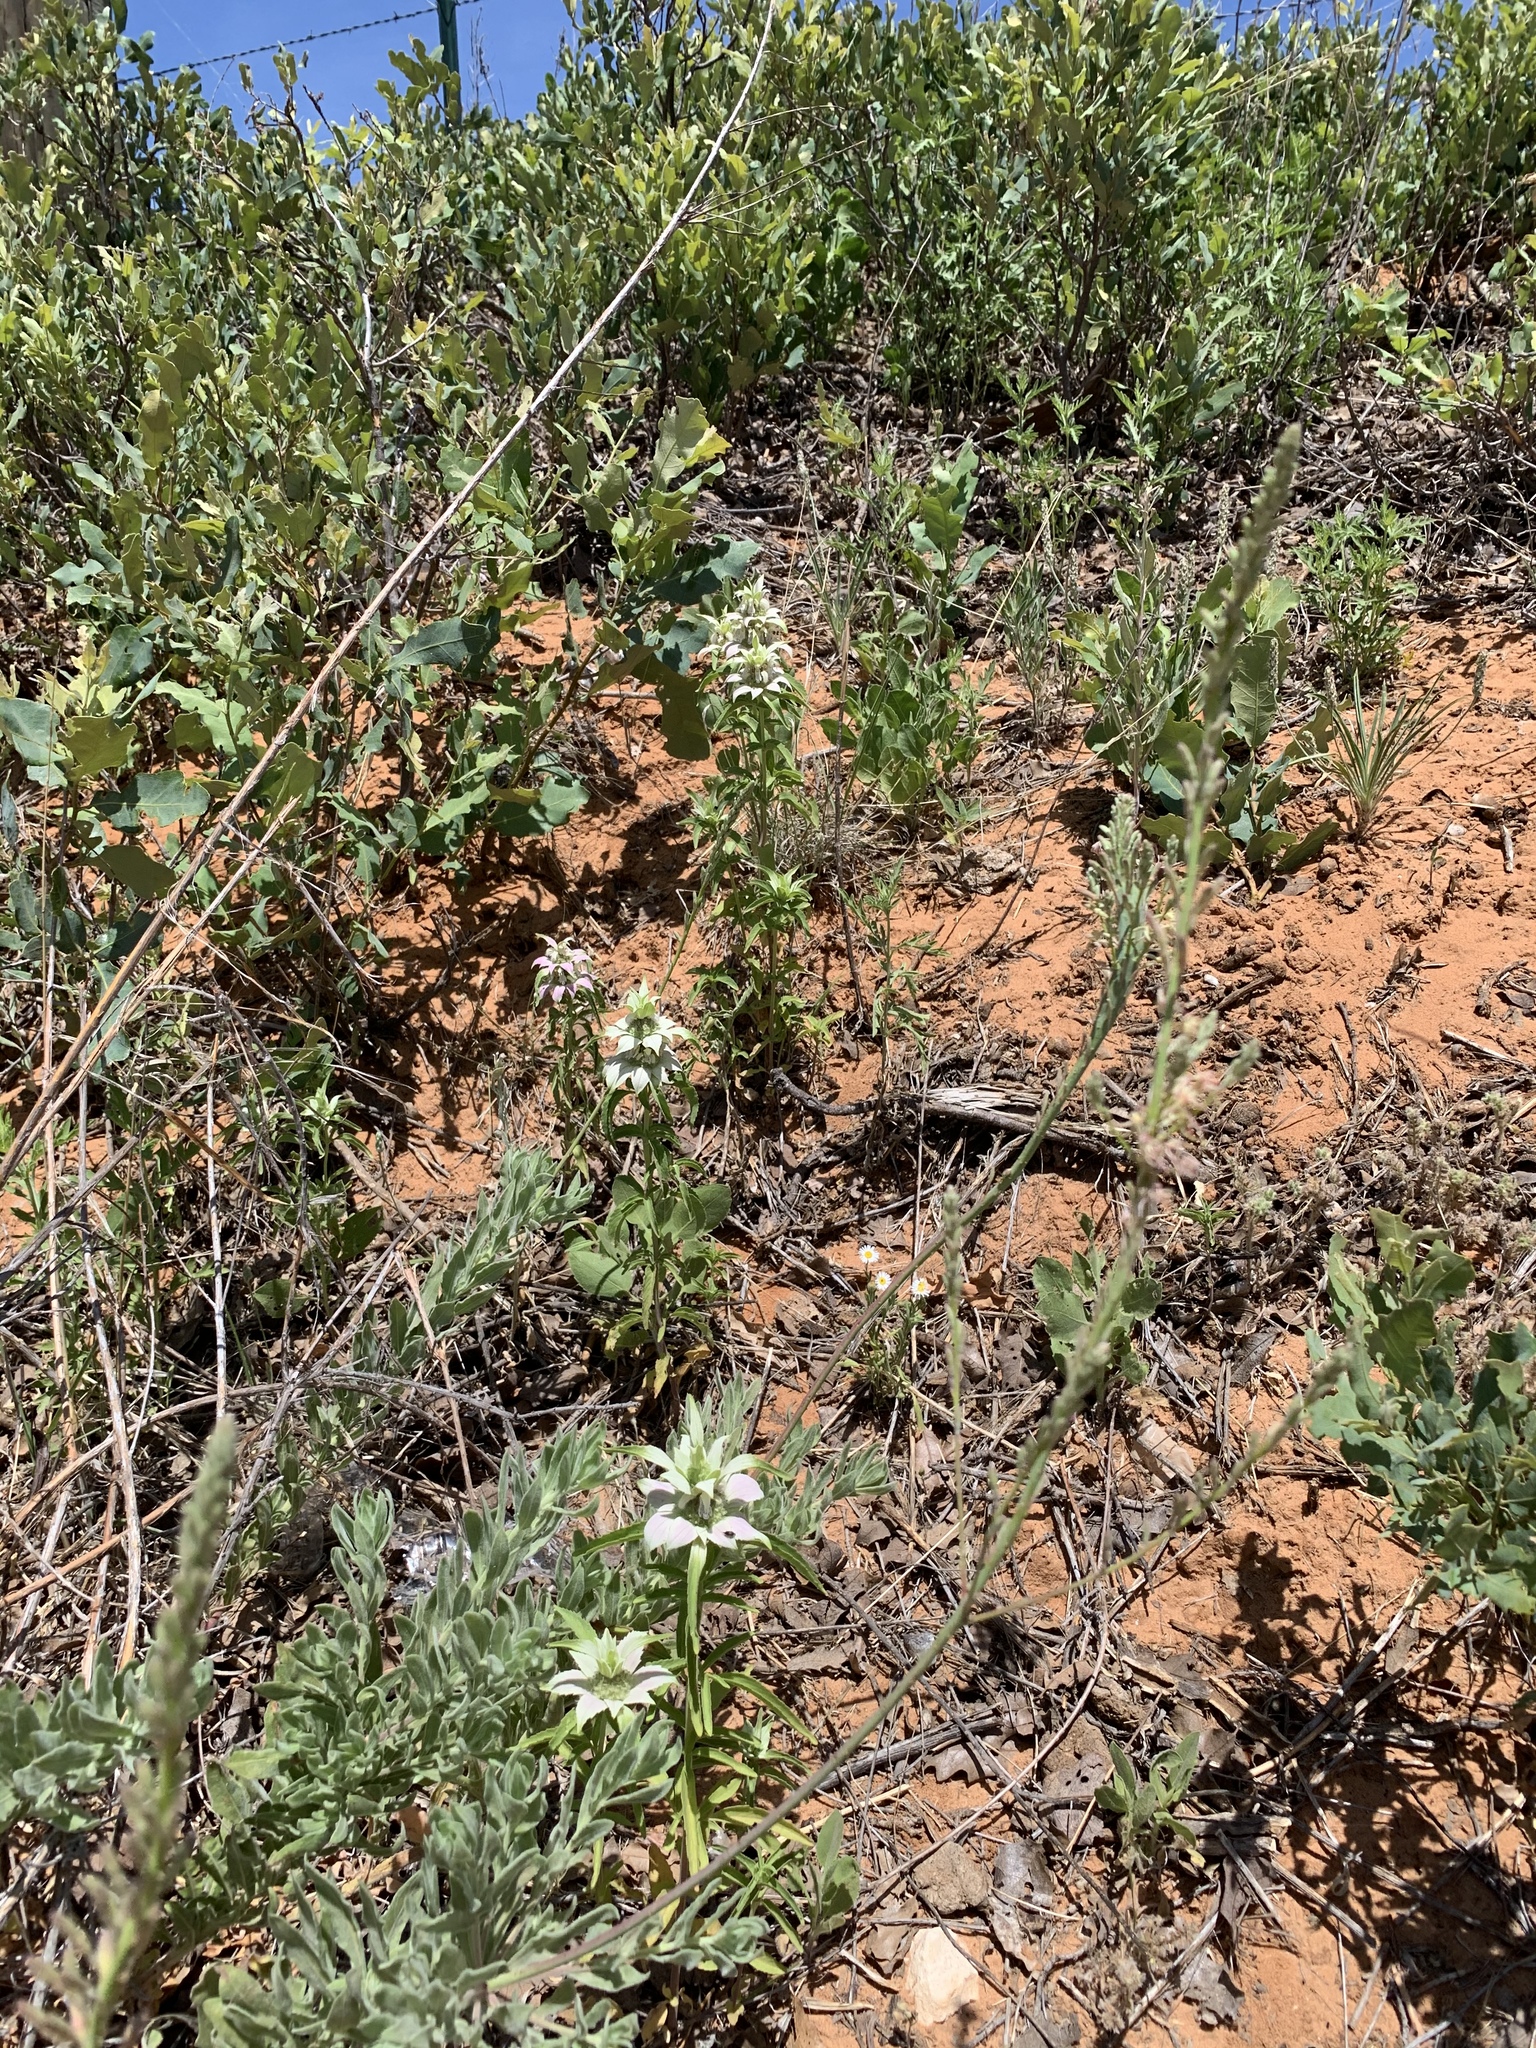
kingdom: Plantae
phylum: Tracheophyta
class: Magnoliopsida
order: Lamiales
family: Lamiaceae
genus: Monarda
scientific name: Monarda punctata
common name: Dotted monarda
